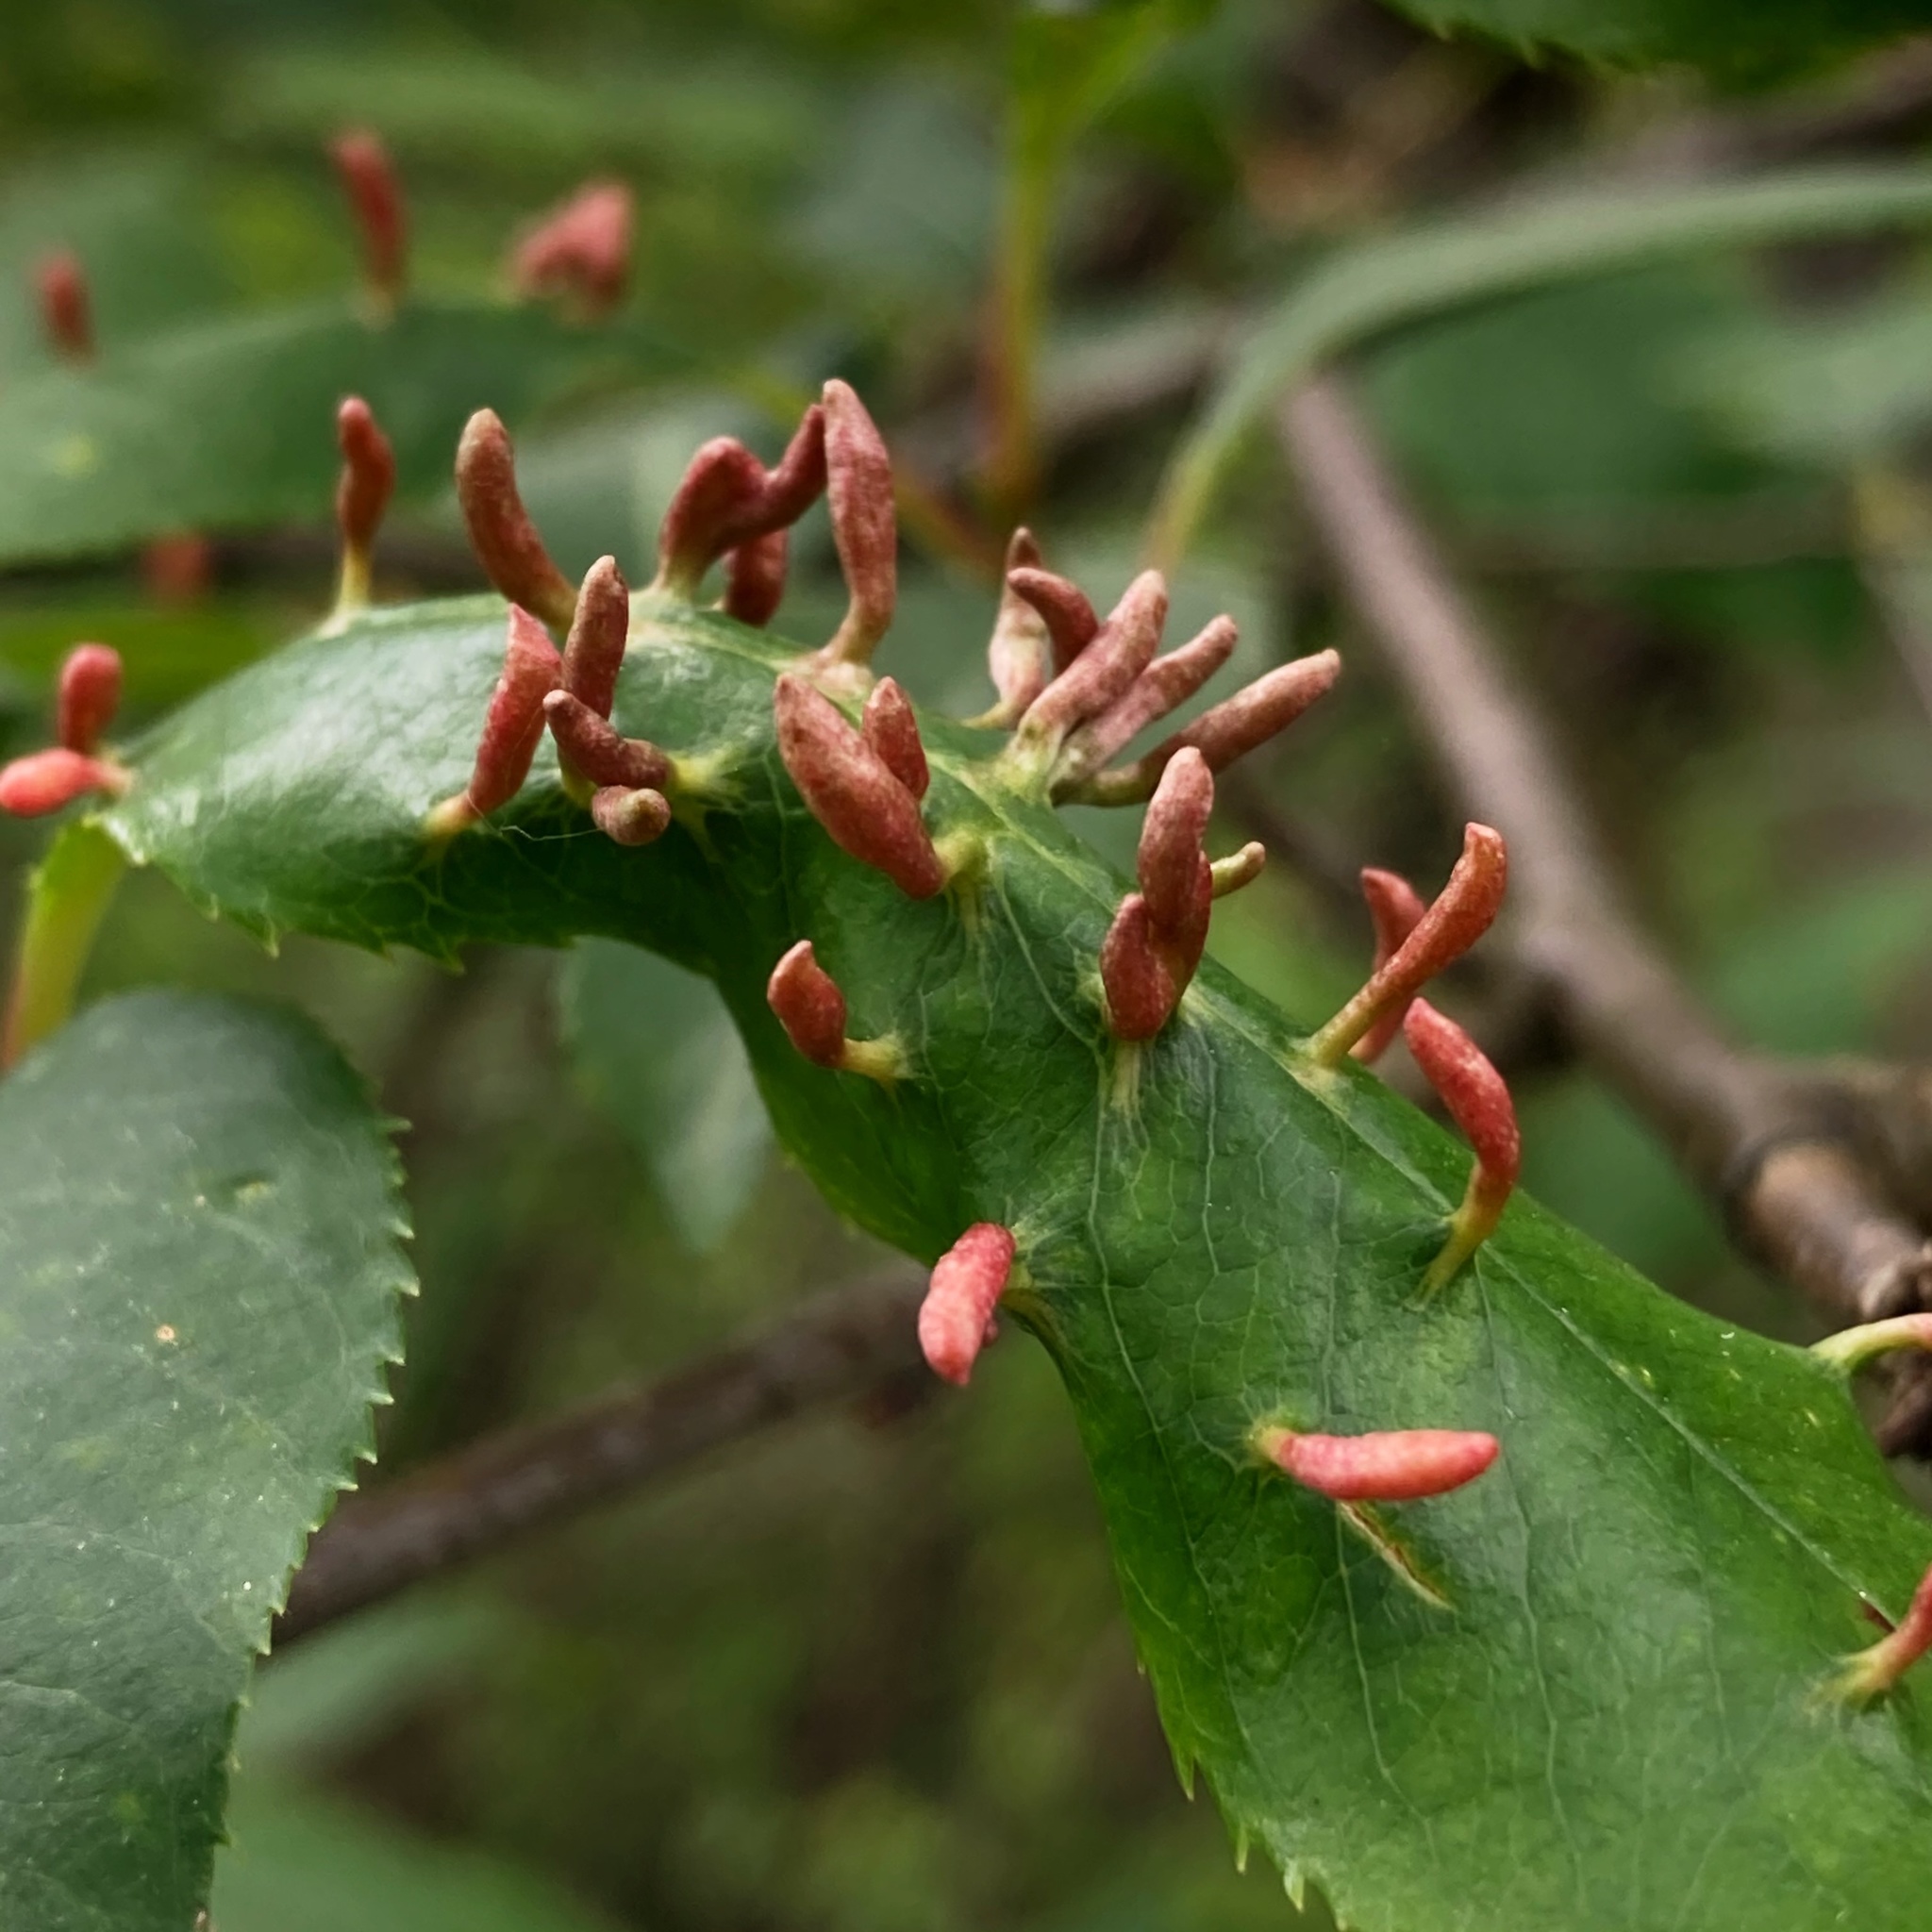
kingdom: Animalia
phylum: Arthropoda
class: Arachnida
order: Trombidiformes
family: Eriophyidae
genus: Eriophyes
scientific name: Eriophyes
